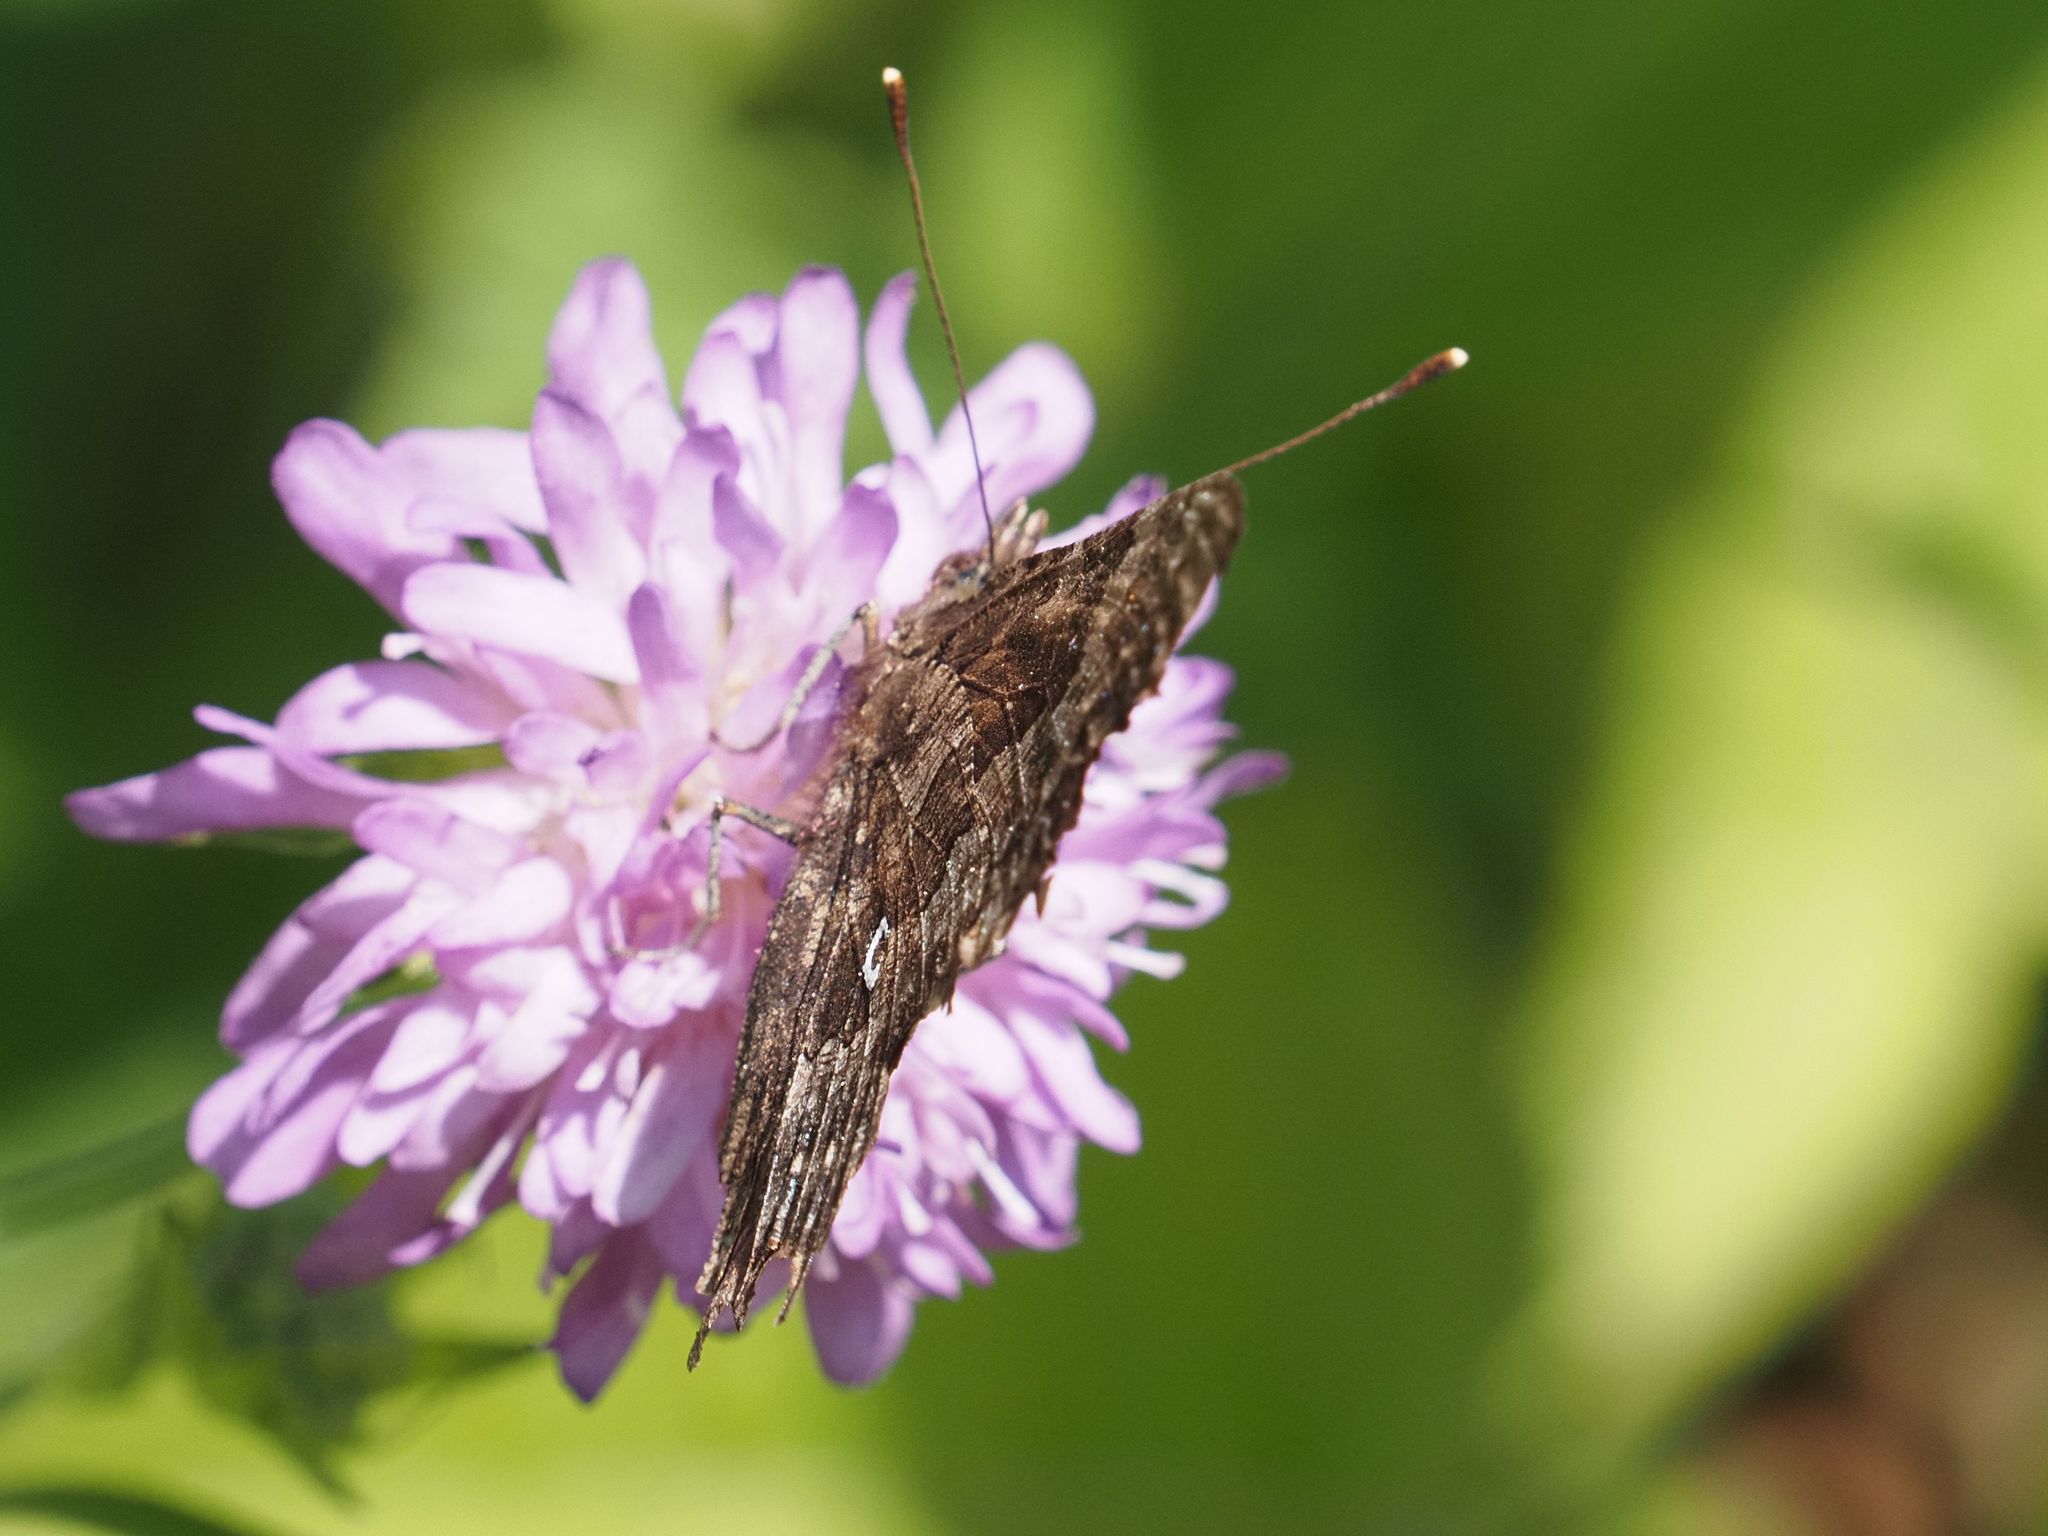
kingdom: Animalia
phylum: Arthropoda
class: Insecta
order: Lepidoptera
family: Nymphalidae
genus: Polygonia
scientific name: Polygonia c-album
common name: Comma
